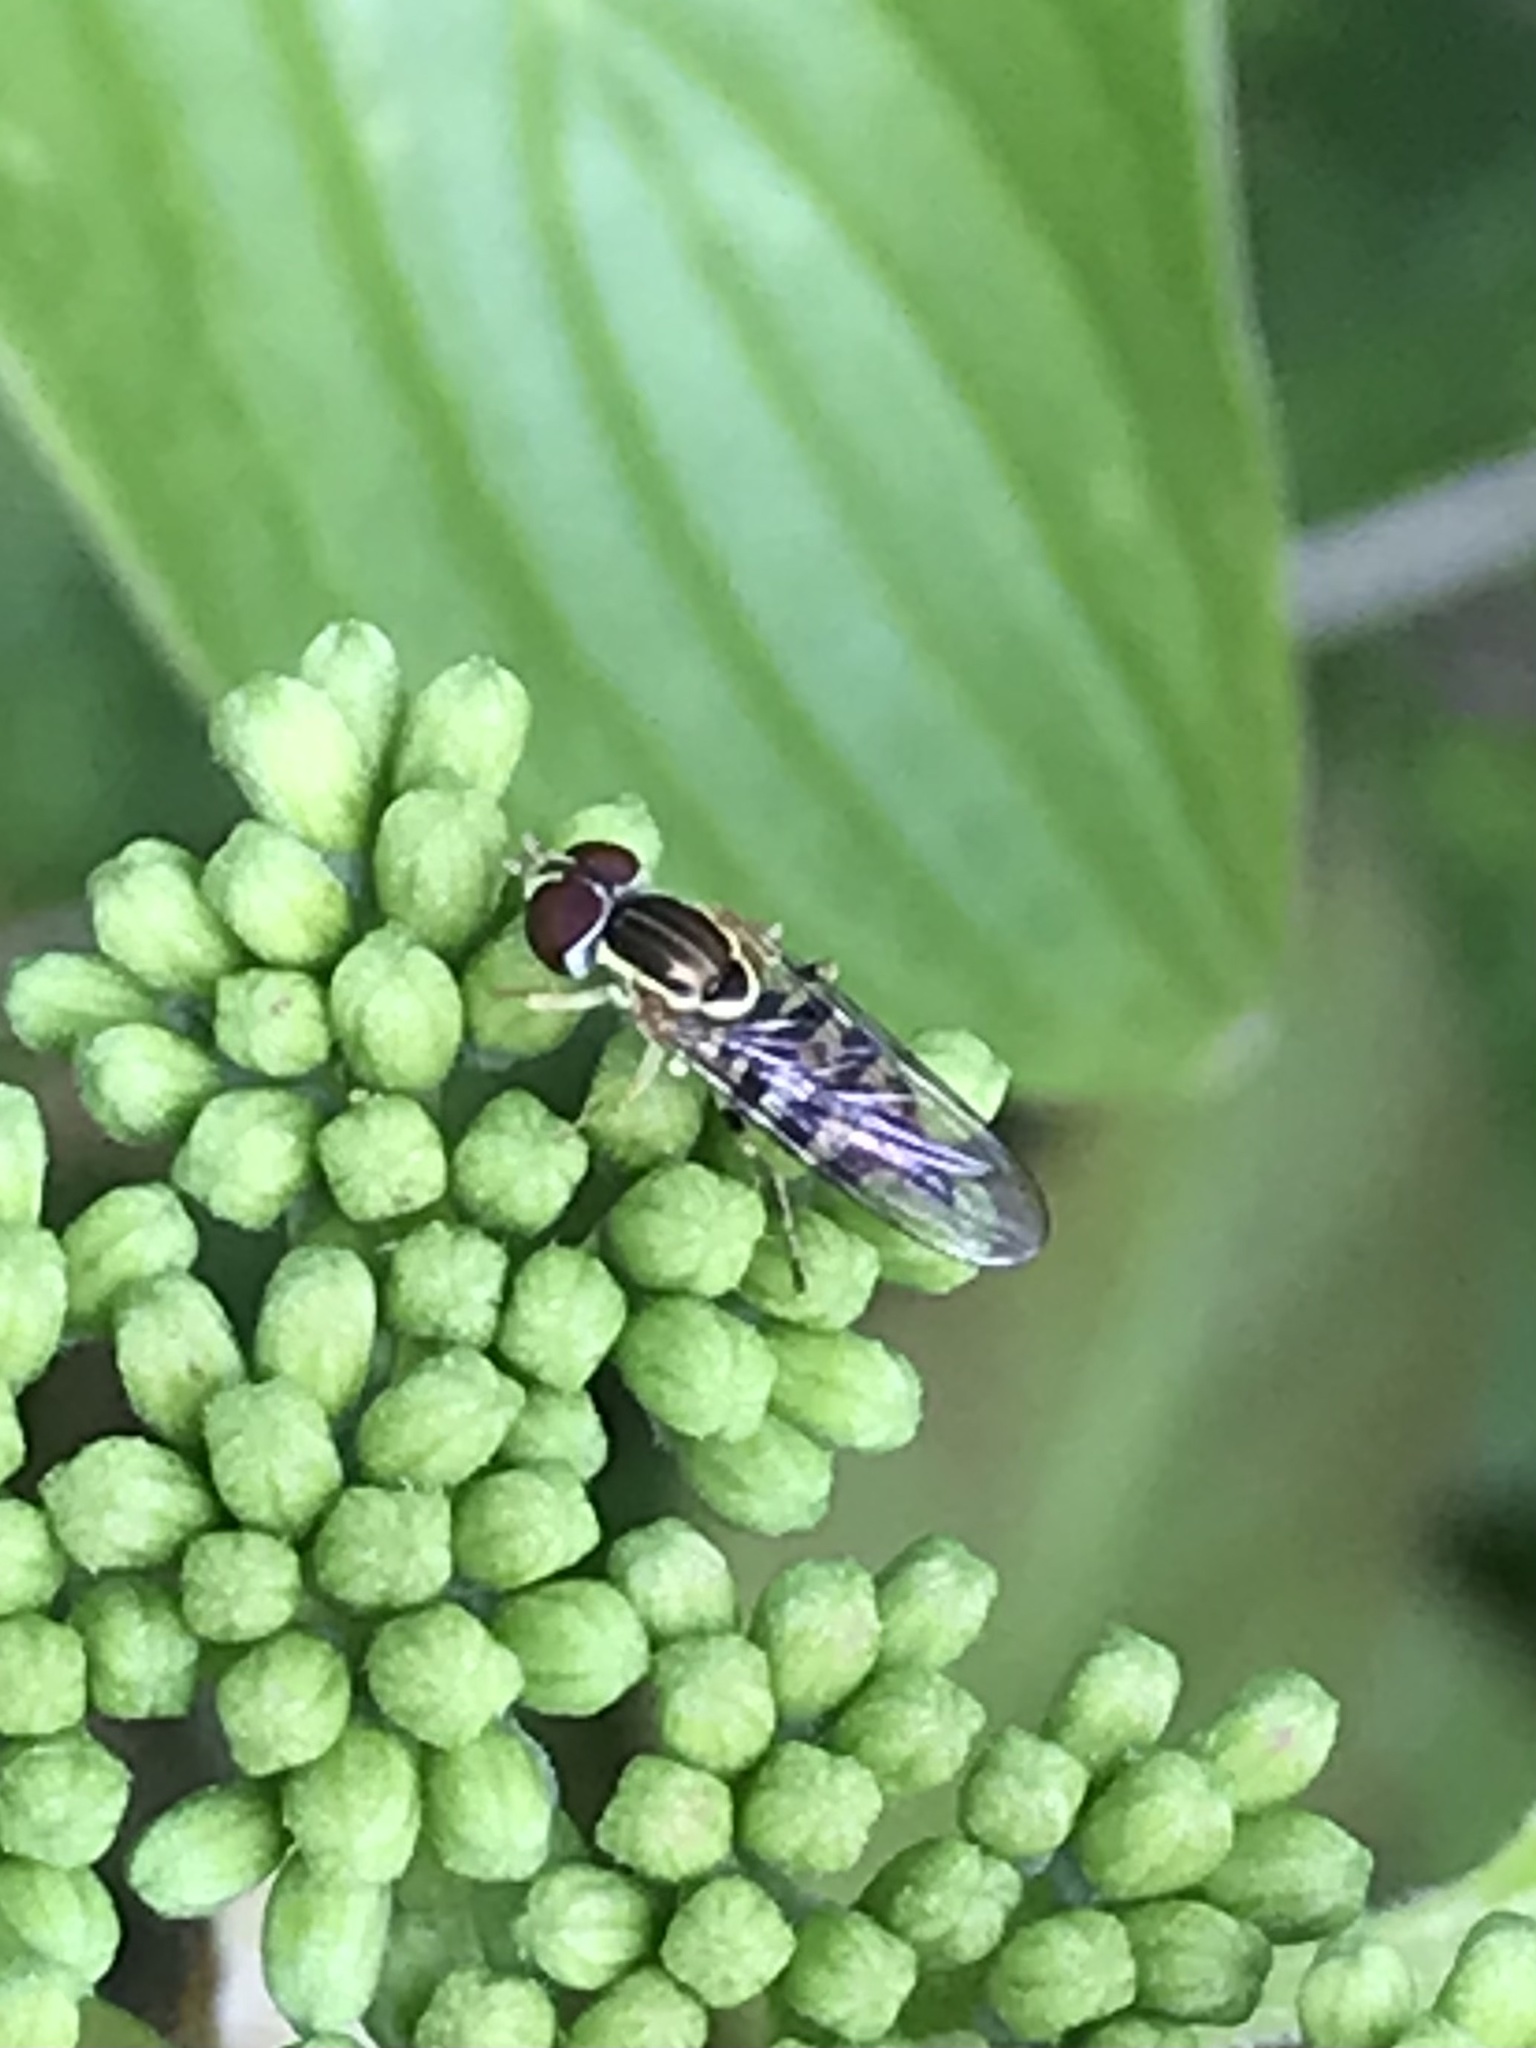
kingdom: Animalia
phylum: Arthropoda
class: Insecta
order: Diptera
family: Syrphidae
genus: Toxomerus
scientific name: Toxomerus geminatus
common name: Eastern calligrapher
